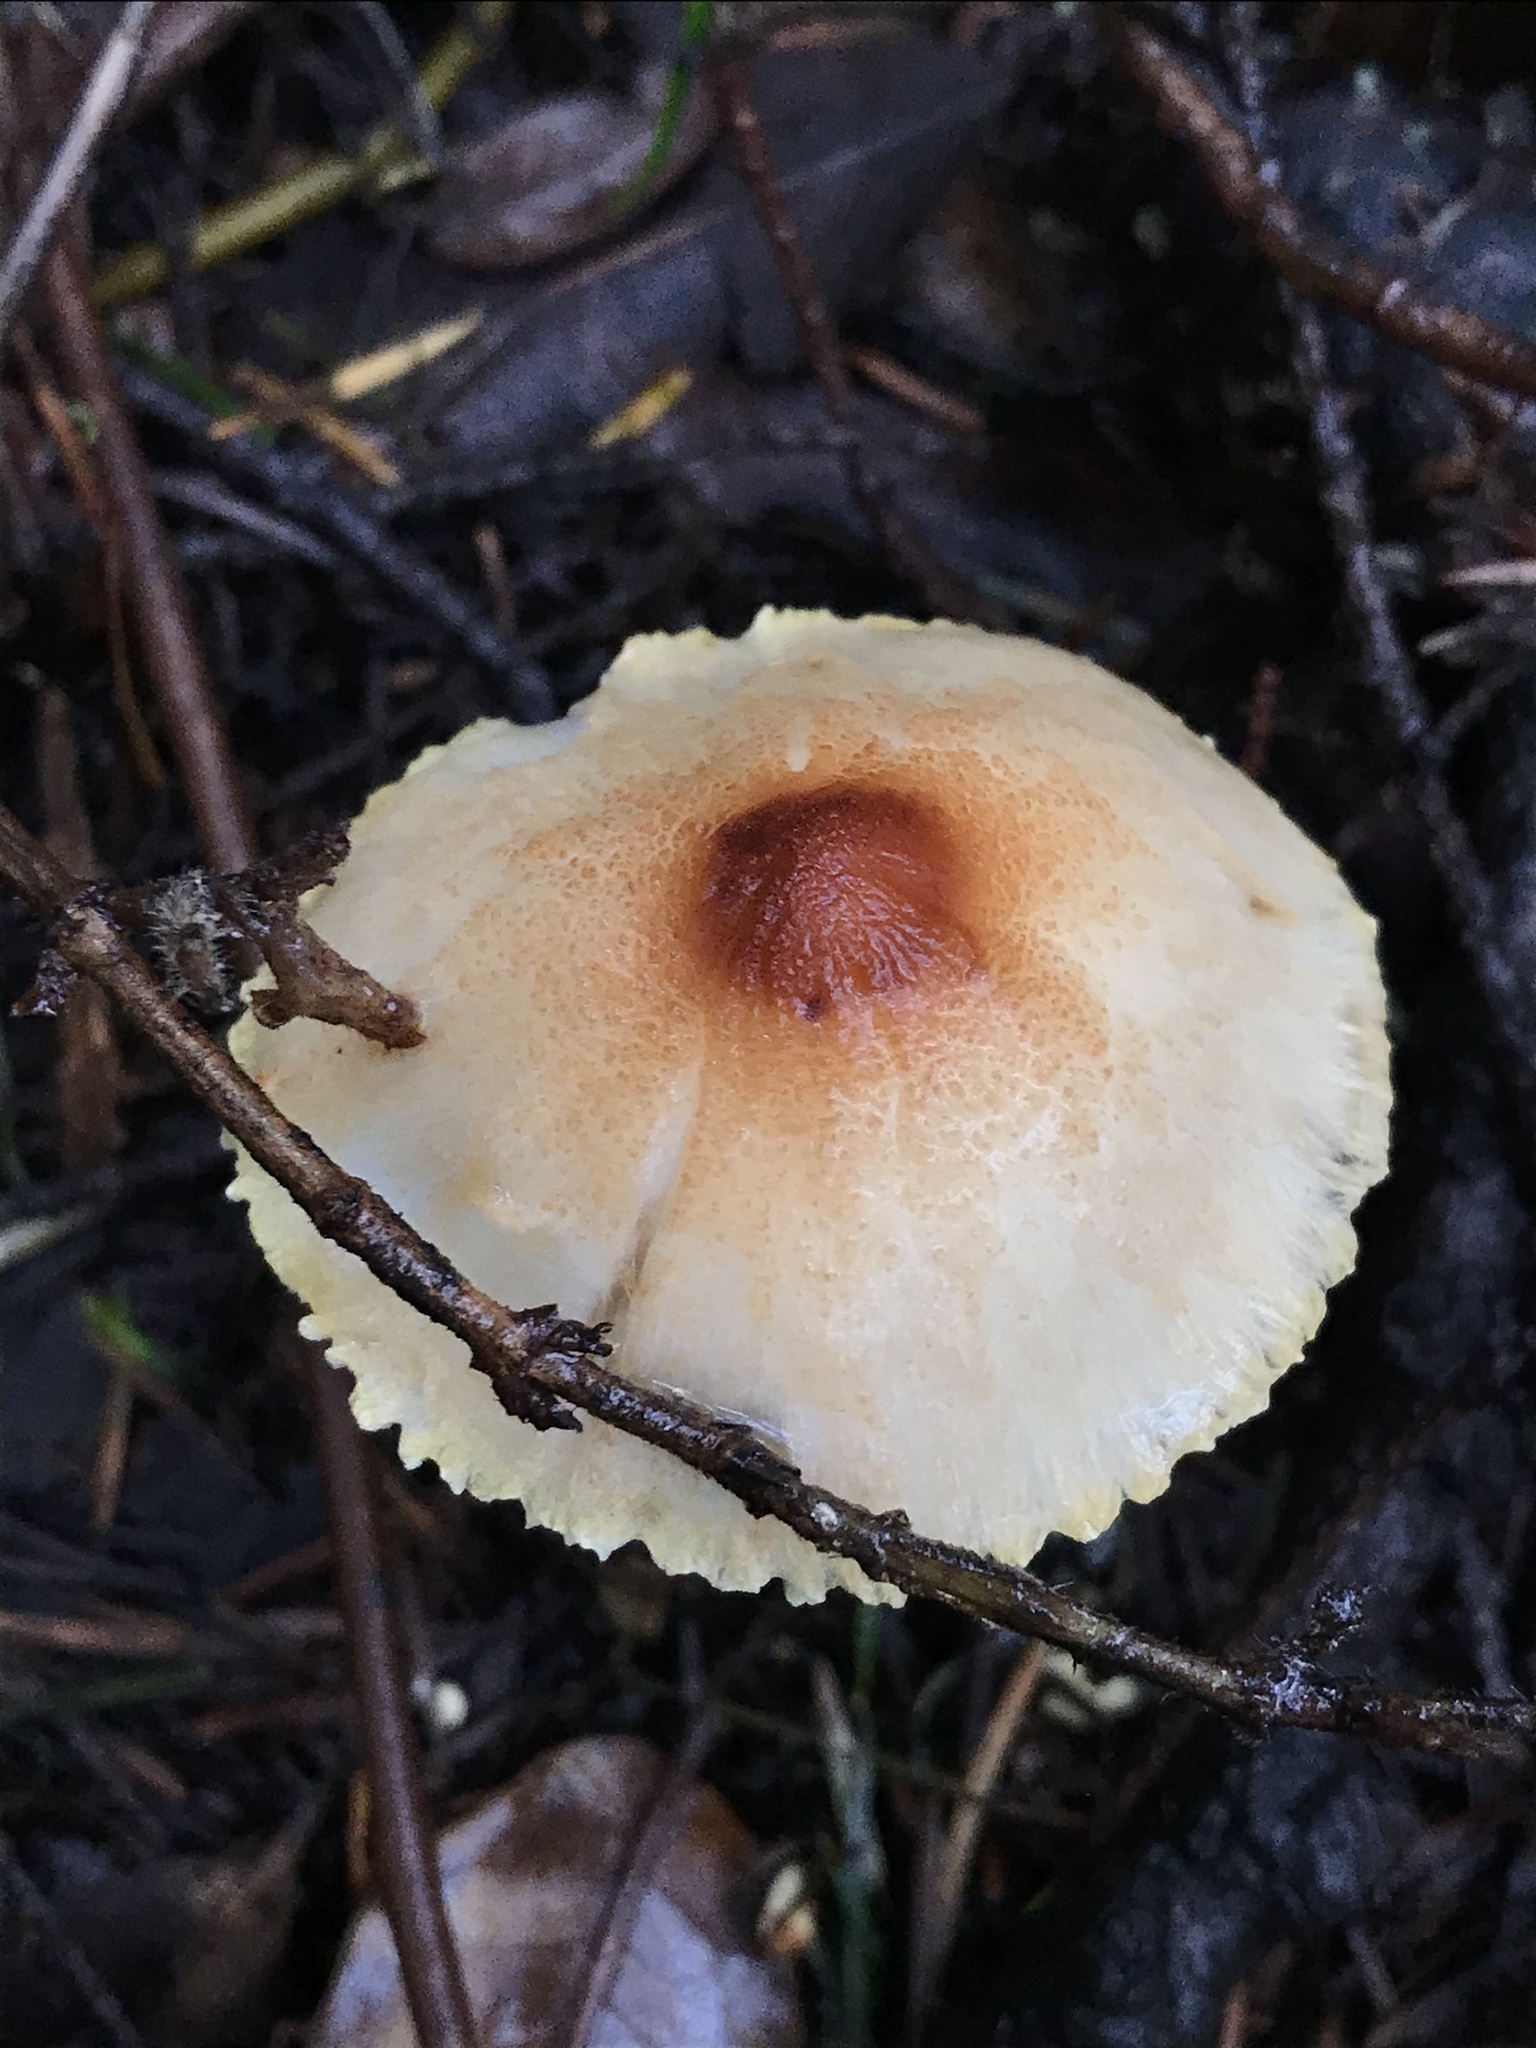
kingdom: Fungi
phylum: Basidiomycota
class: Agaricomycetes
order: Agaricales
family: Agaricaceae
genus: Lepiota
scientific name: Lepiota magnispora
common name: Yellowfoot dapperling
